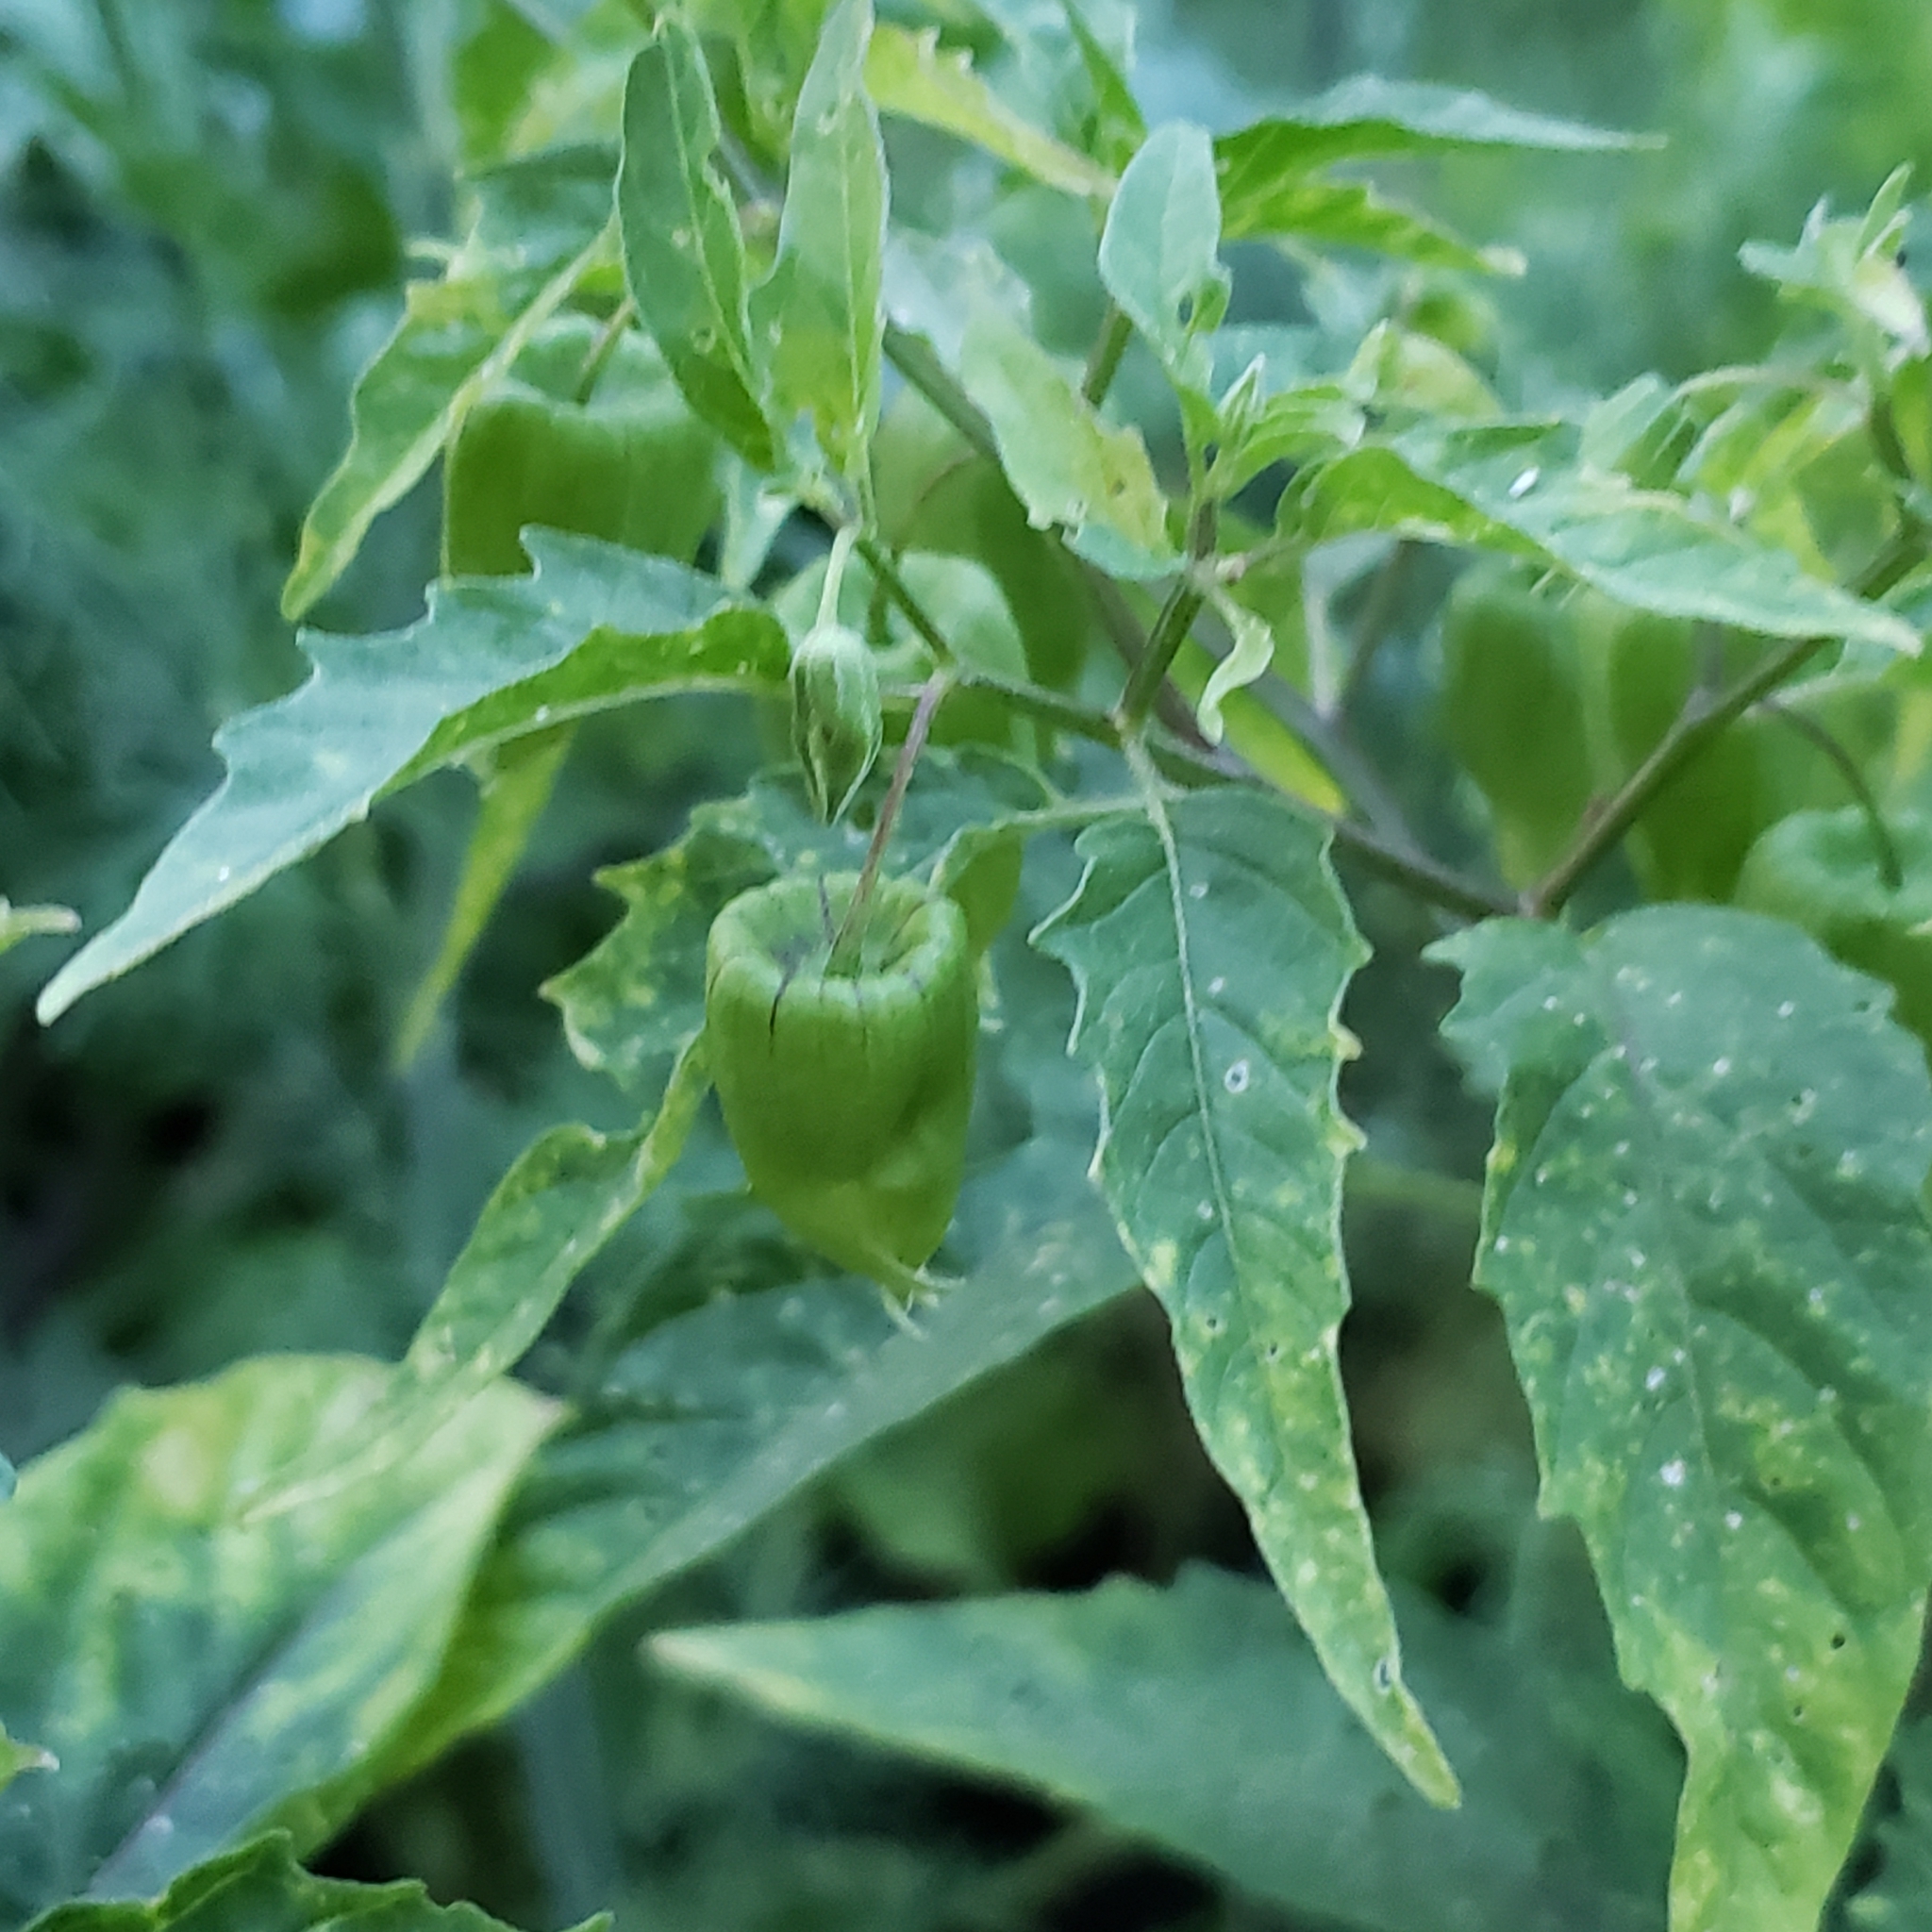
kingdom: Plantae
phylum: Tracheophyta
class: Magnoliopsida
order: Solanales
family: Solanaceae
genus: Physalis
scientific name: Physalis longifolia
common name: Common ground-cherry
